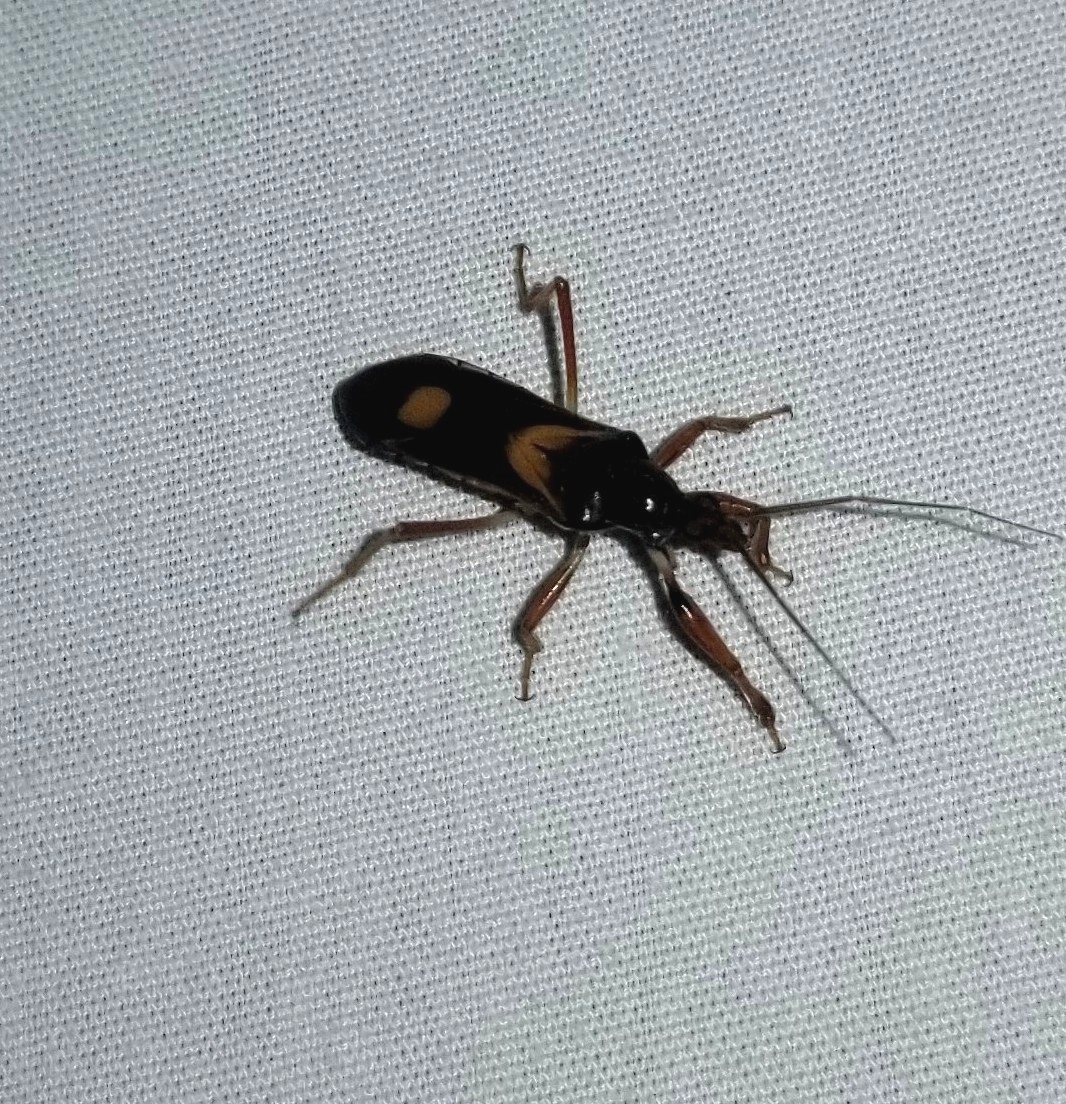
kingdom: Animalia
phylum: Arthropoda
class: Insecta
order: Hemiptera
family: Reduviidae
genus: Rasahus
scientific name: Rasahus hamatus
